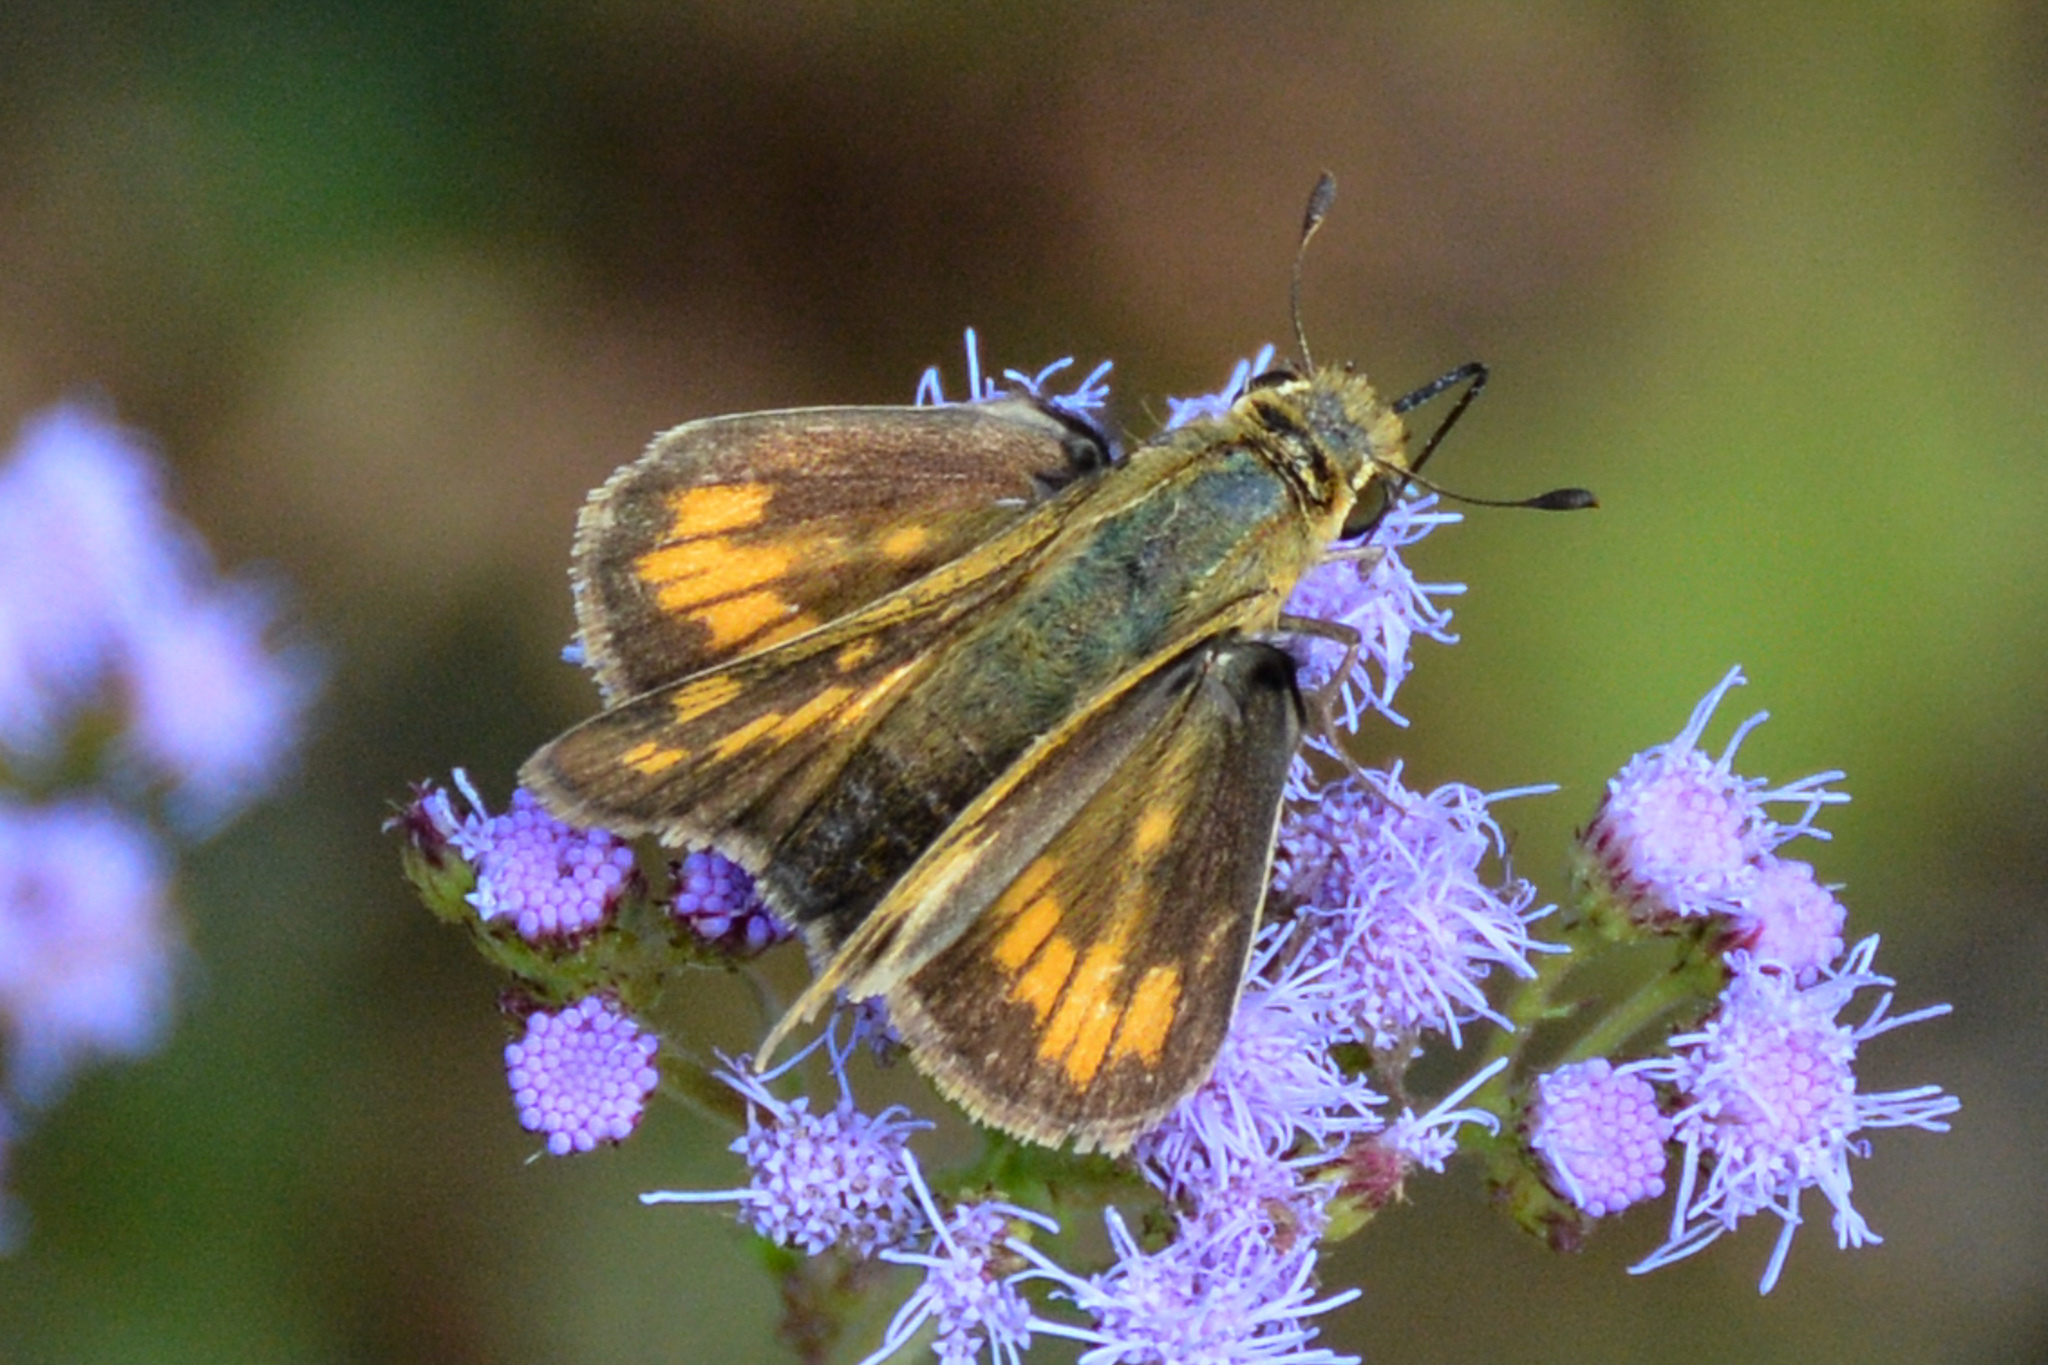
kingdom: Animalia
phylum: Arthropoda
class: Insecta
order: Lepidoptera
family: Hesperiidae
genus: Hylephila
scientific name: Hylephila phyleus
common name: Fiery skipper
